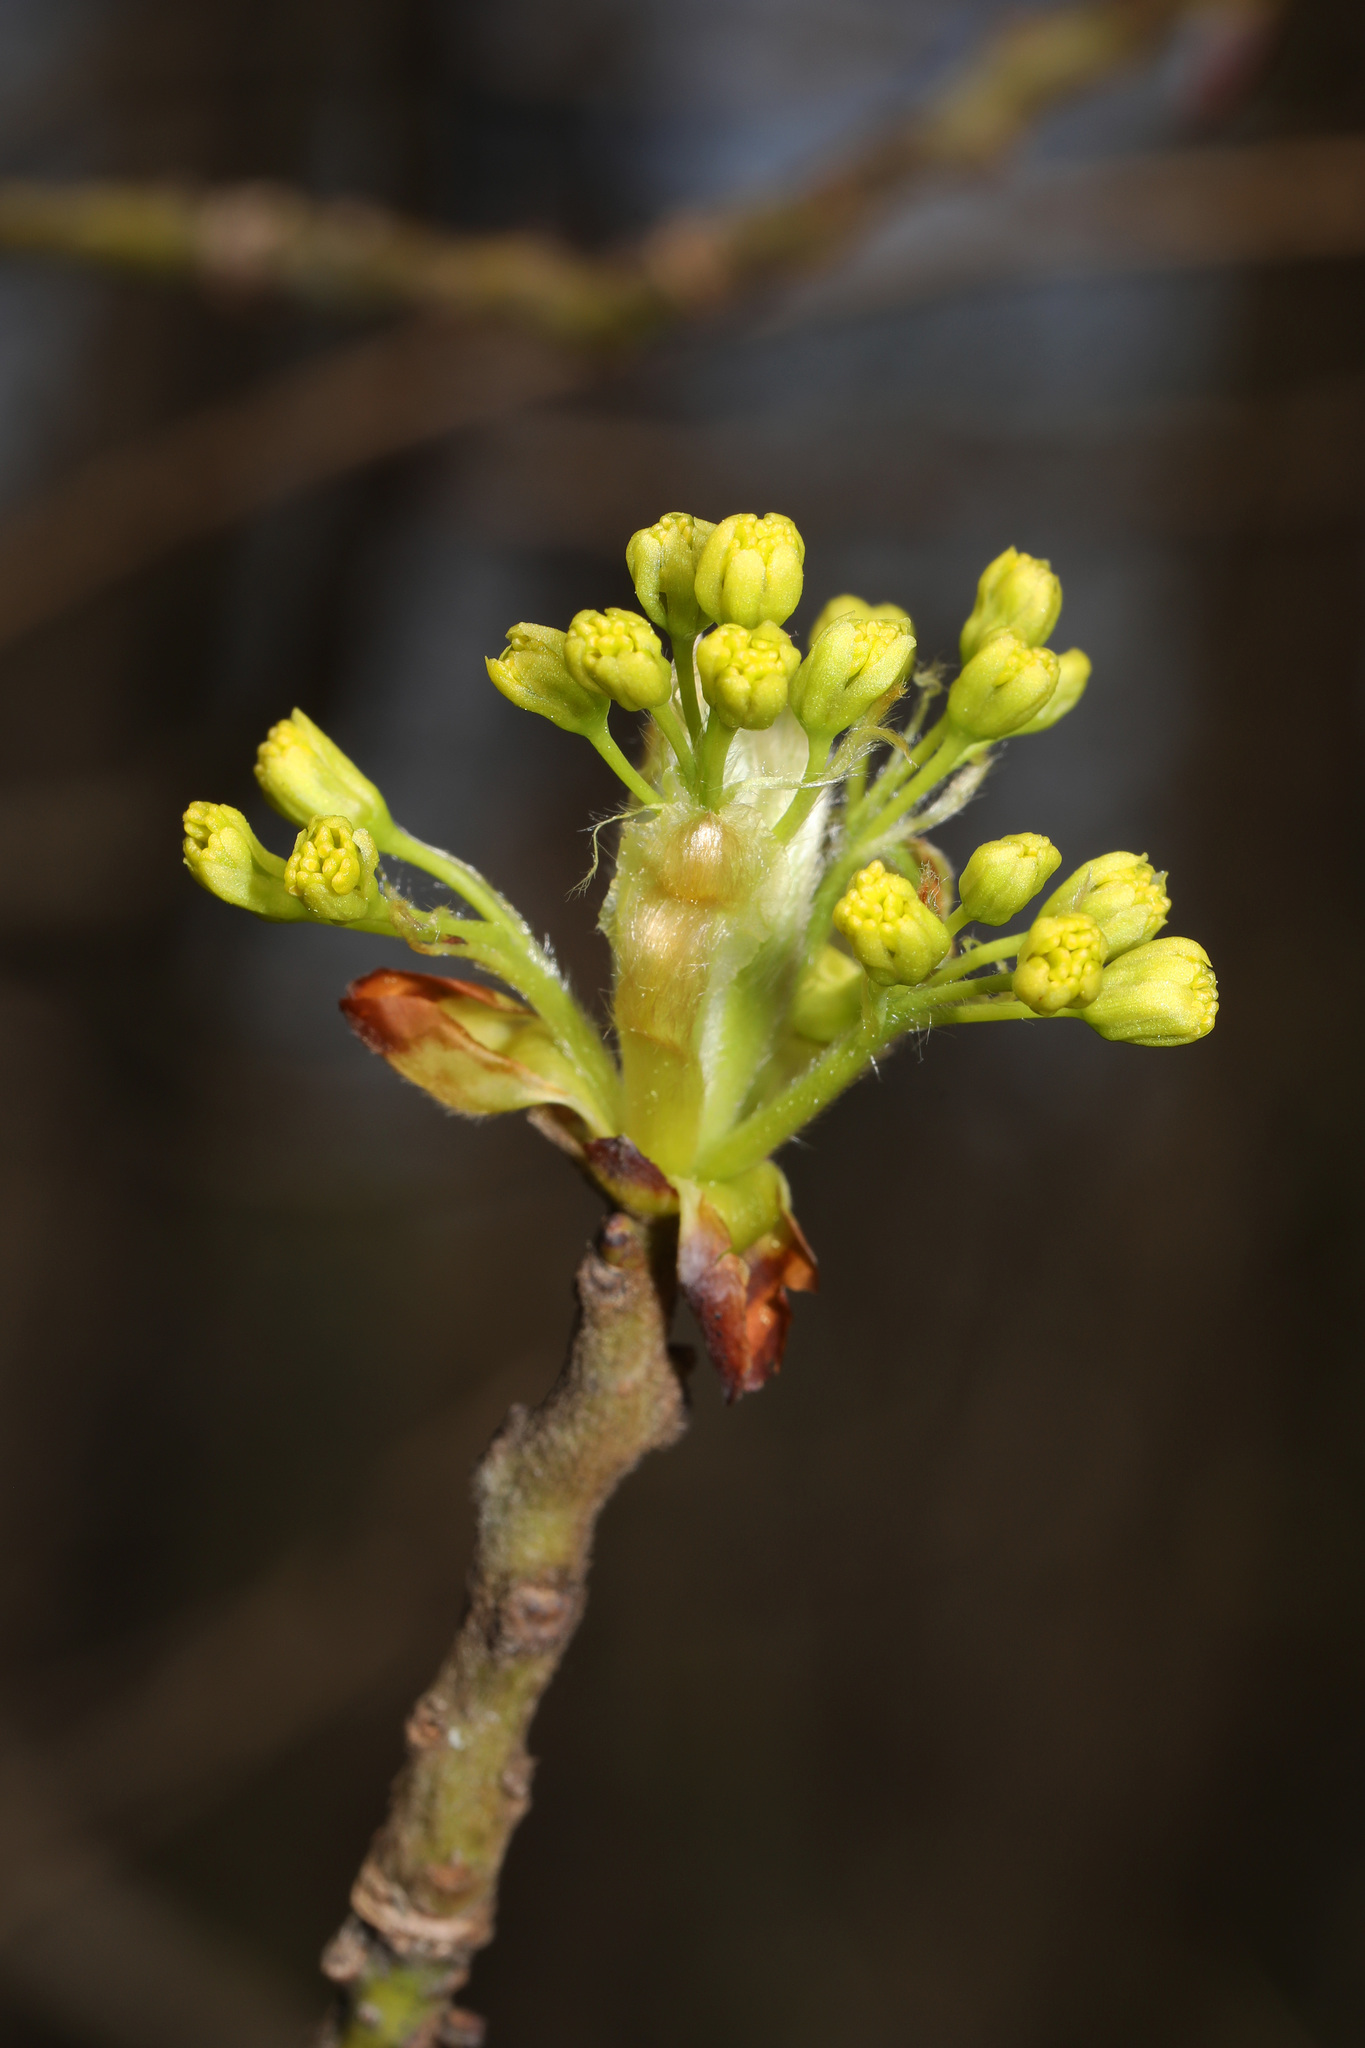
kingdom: Plantae
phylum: Tracheophyta
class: Magnoliopsida
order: Laurales
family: Lauraceae
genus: Sassafras
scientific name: Sassafras albidum
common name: Sassafras
